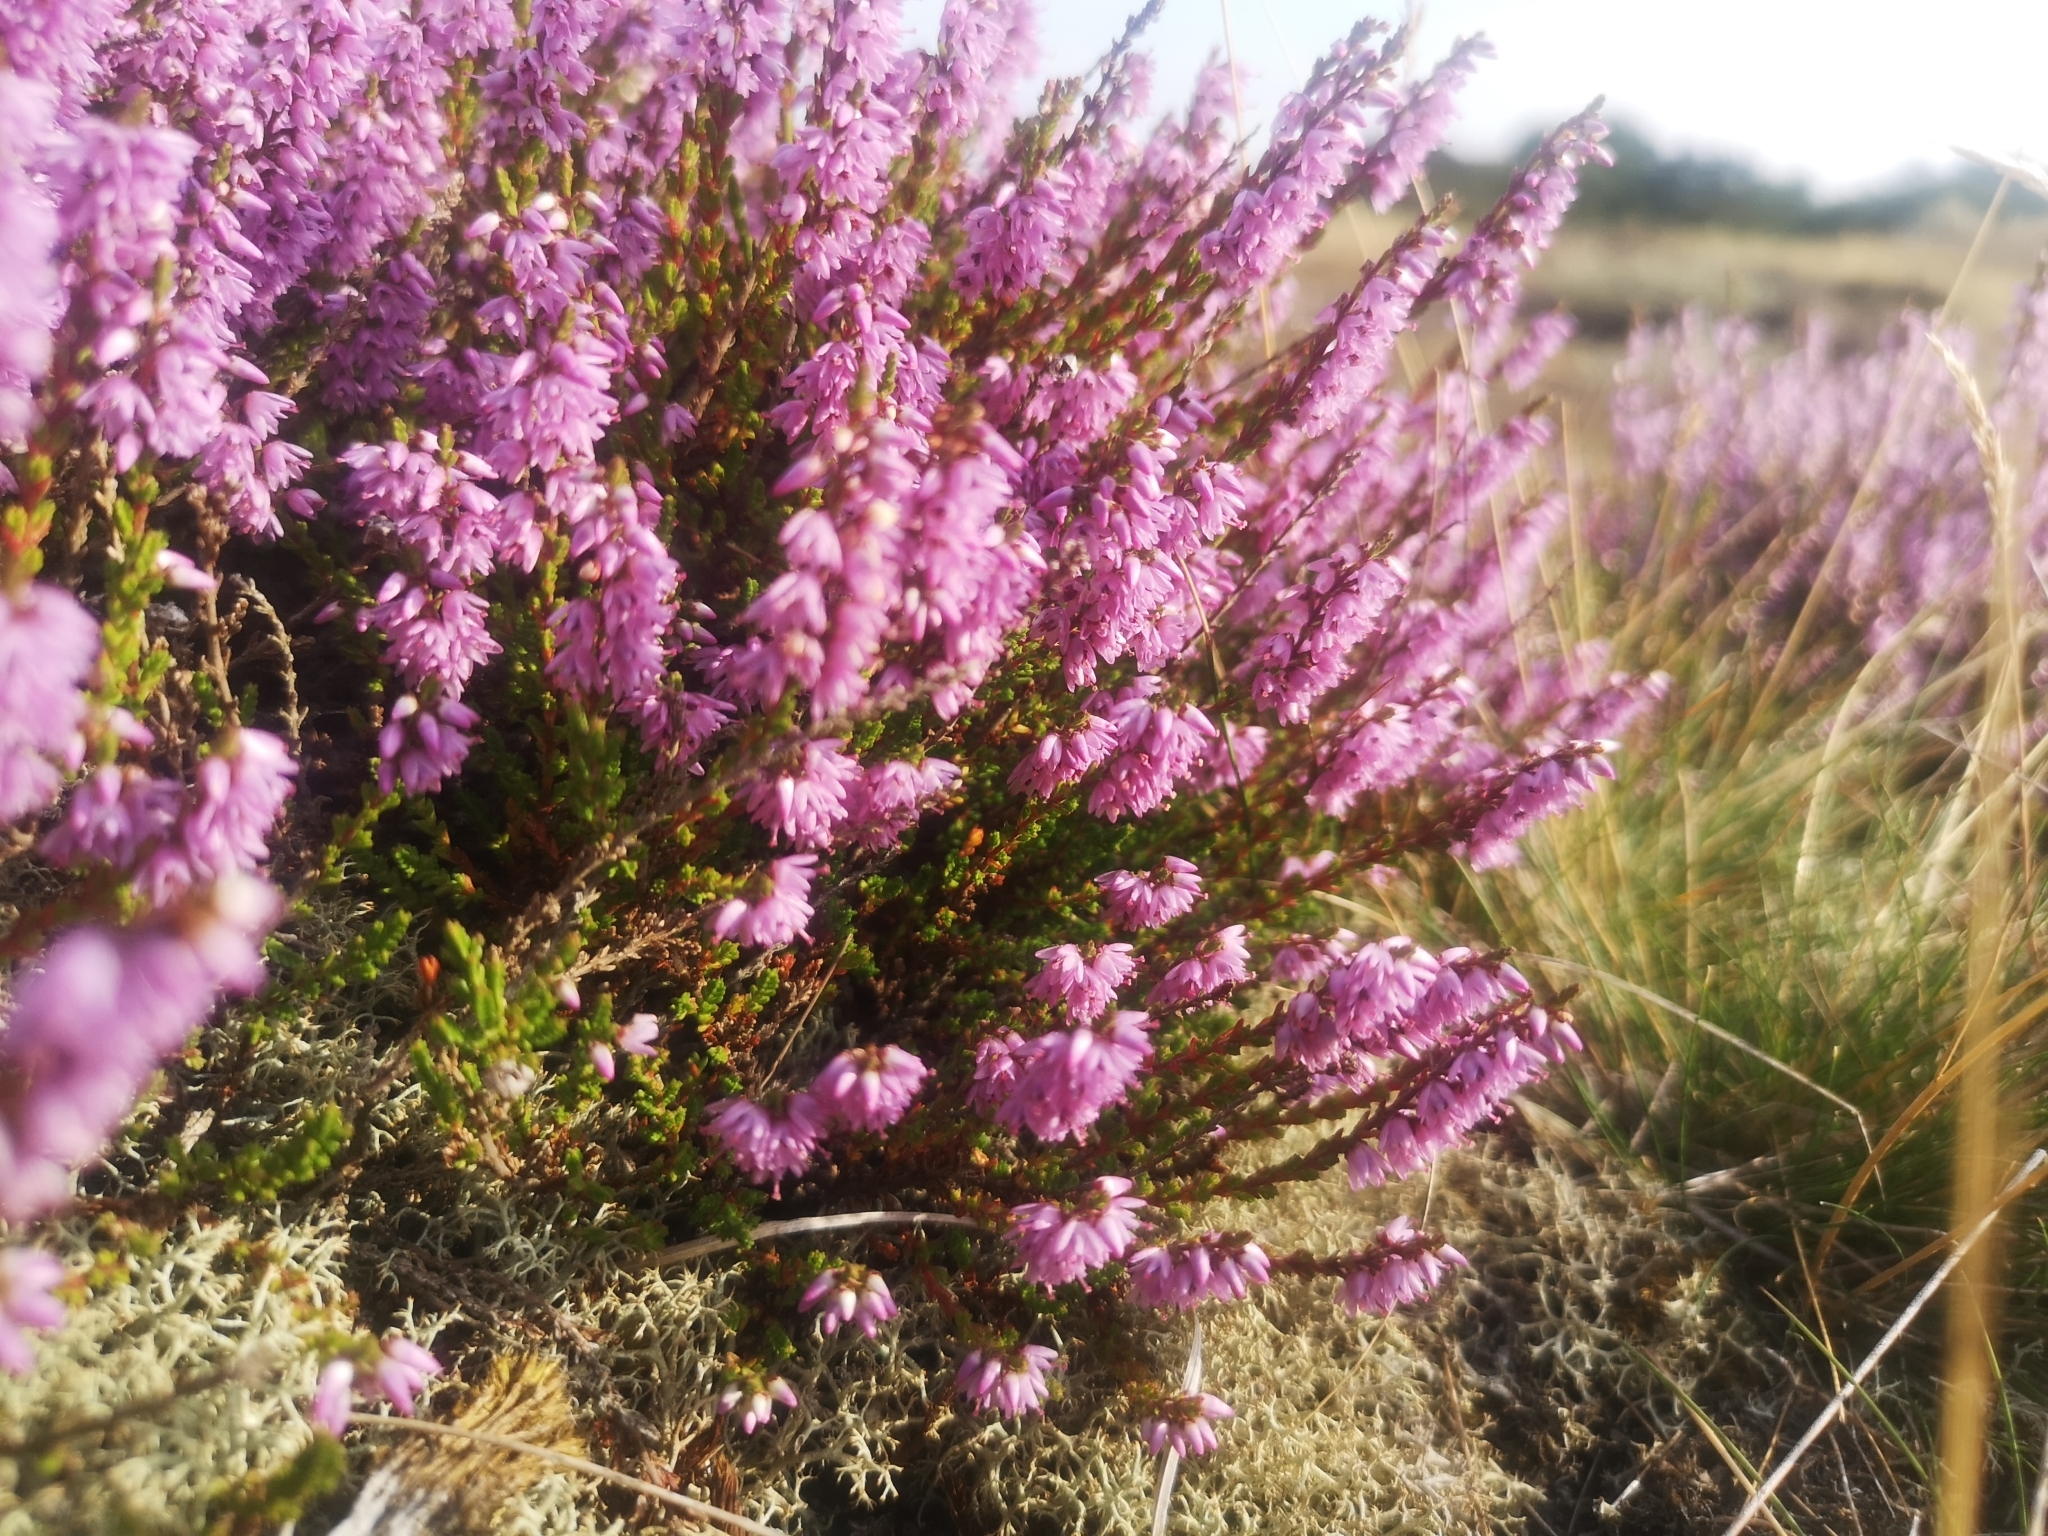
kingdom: Plantae
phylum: Tracheophyta
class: Magnoliopsida
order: Ericales
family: Ericaceae
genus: Calluna
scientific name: Calluna vulgaris
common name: Heather
